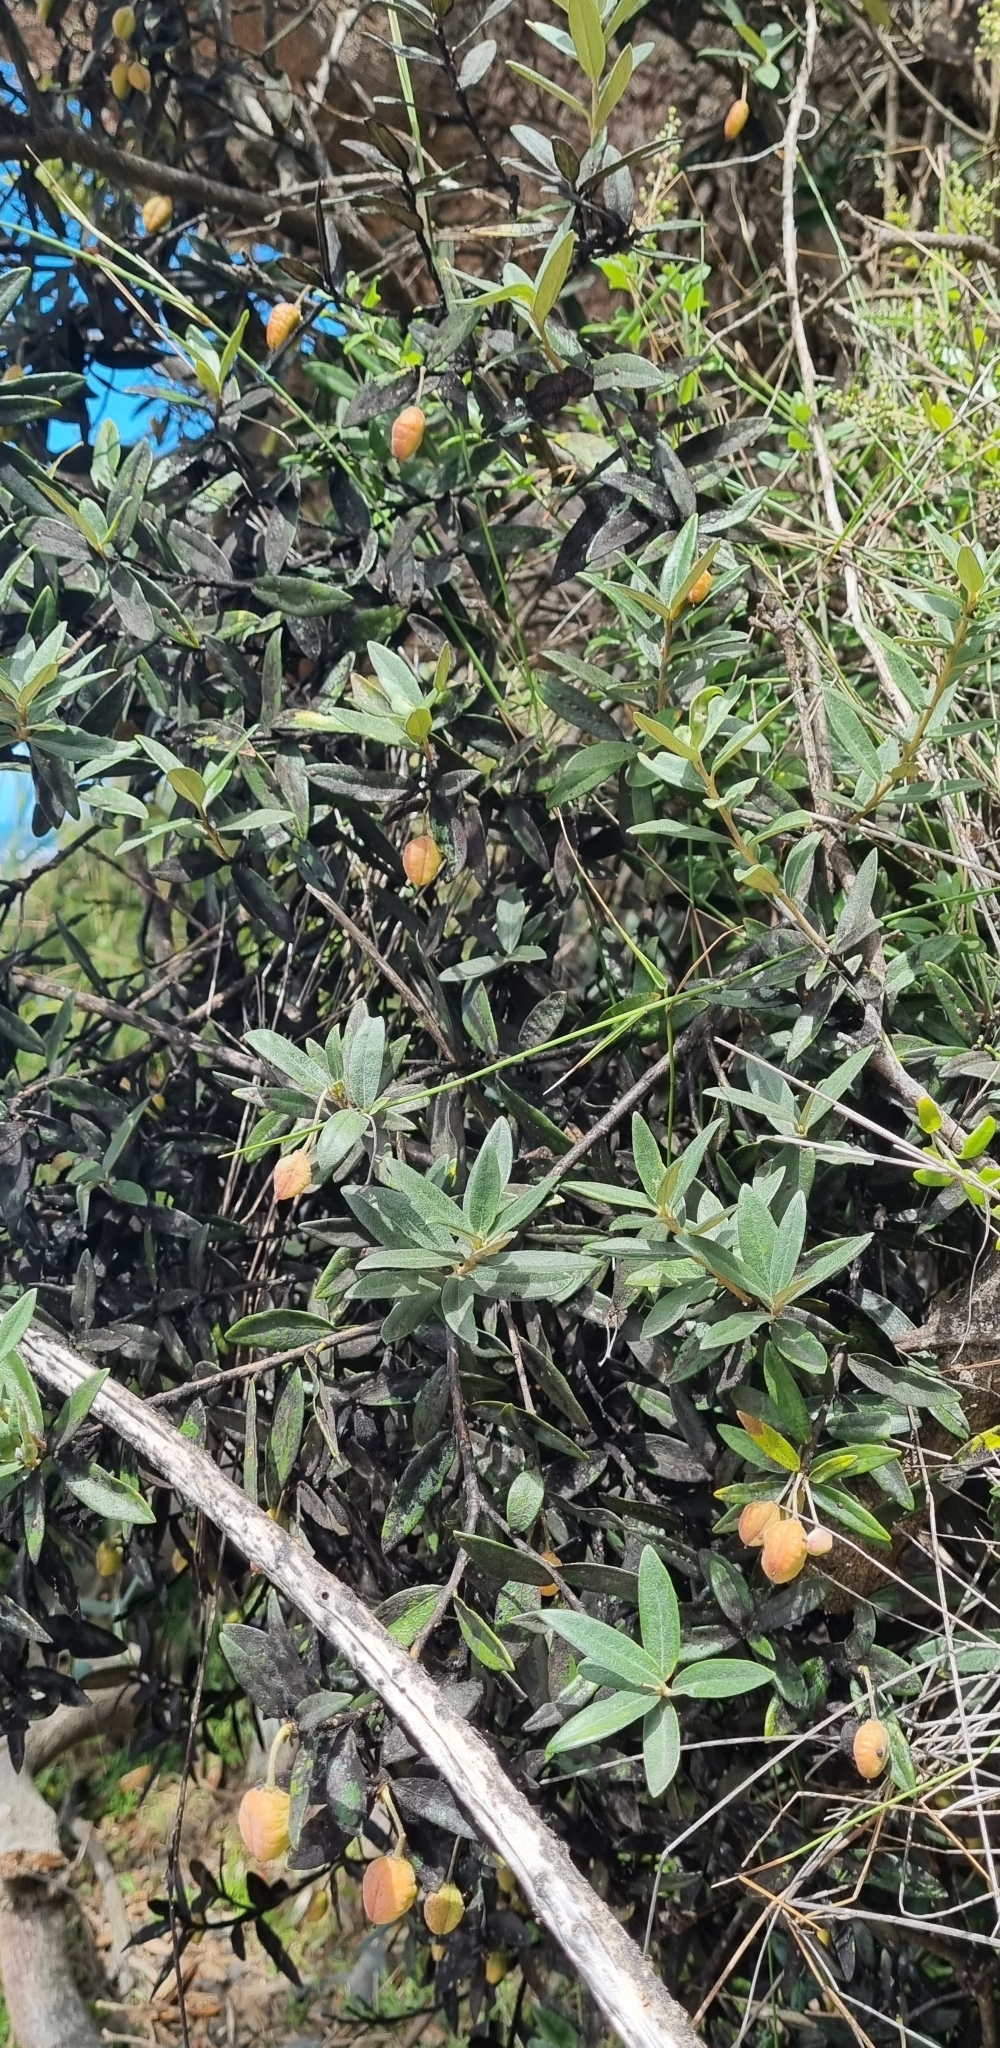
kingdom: Plantae
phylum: Tracheophyta
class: Magnoliopsida
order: Apiales
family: Pittosporaceae
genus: Pittosporum
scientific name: Pittosporum bicolor
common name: Tallowwood
